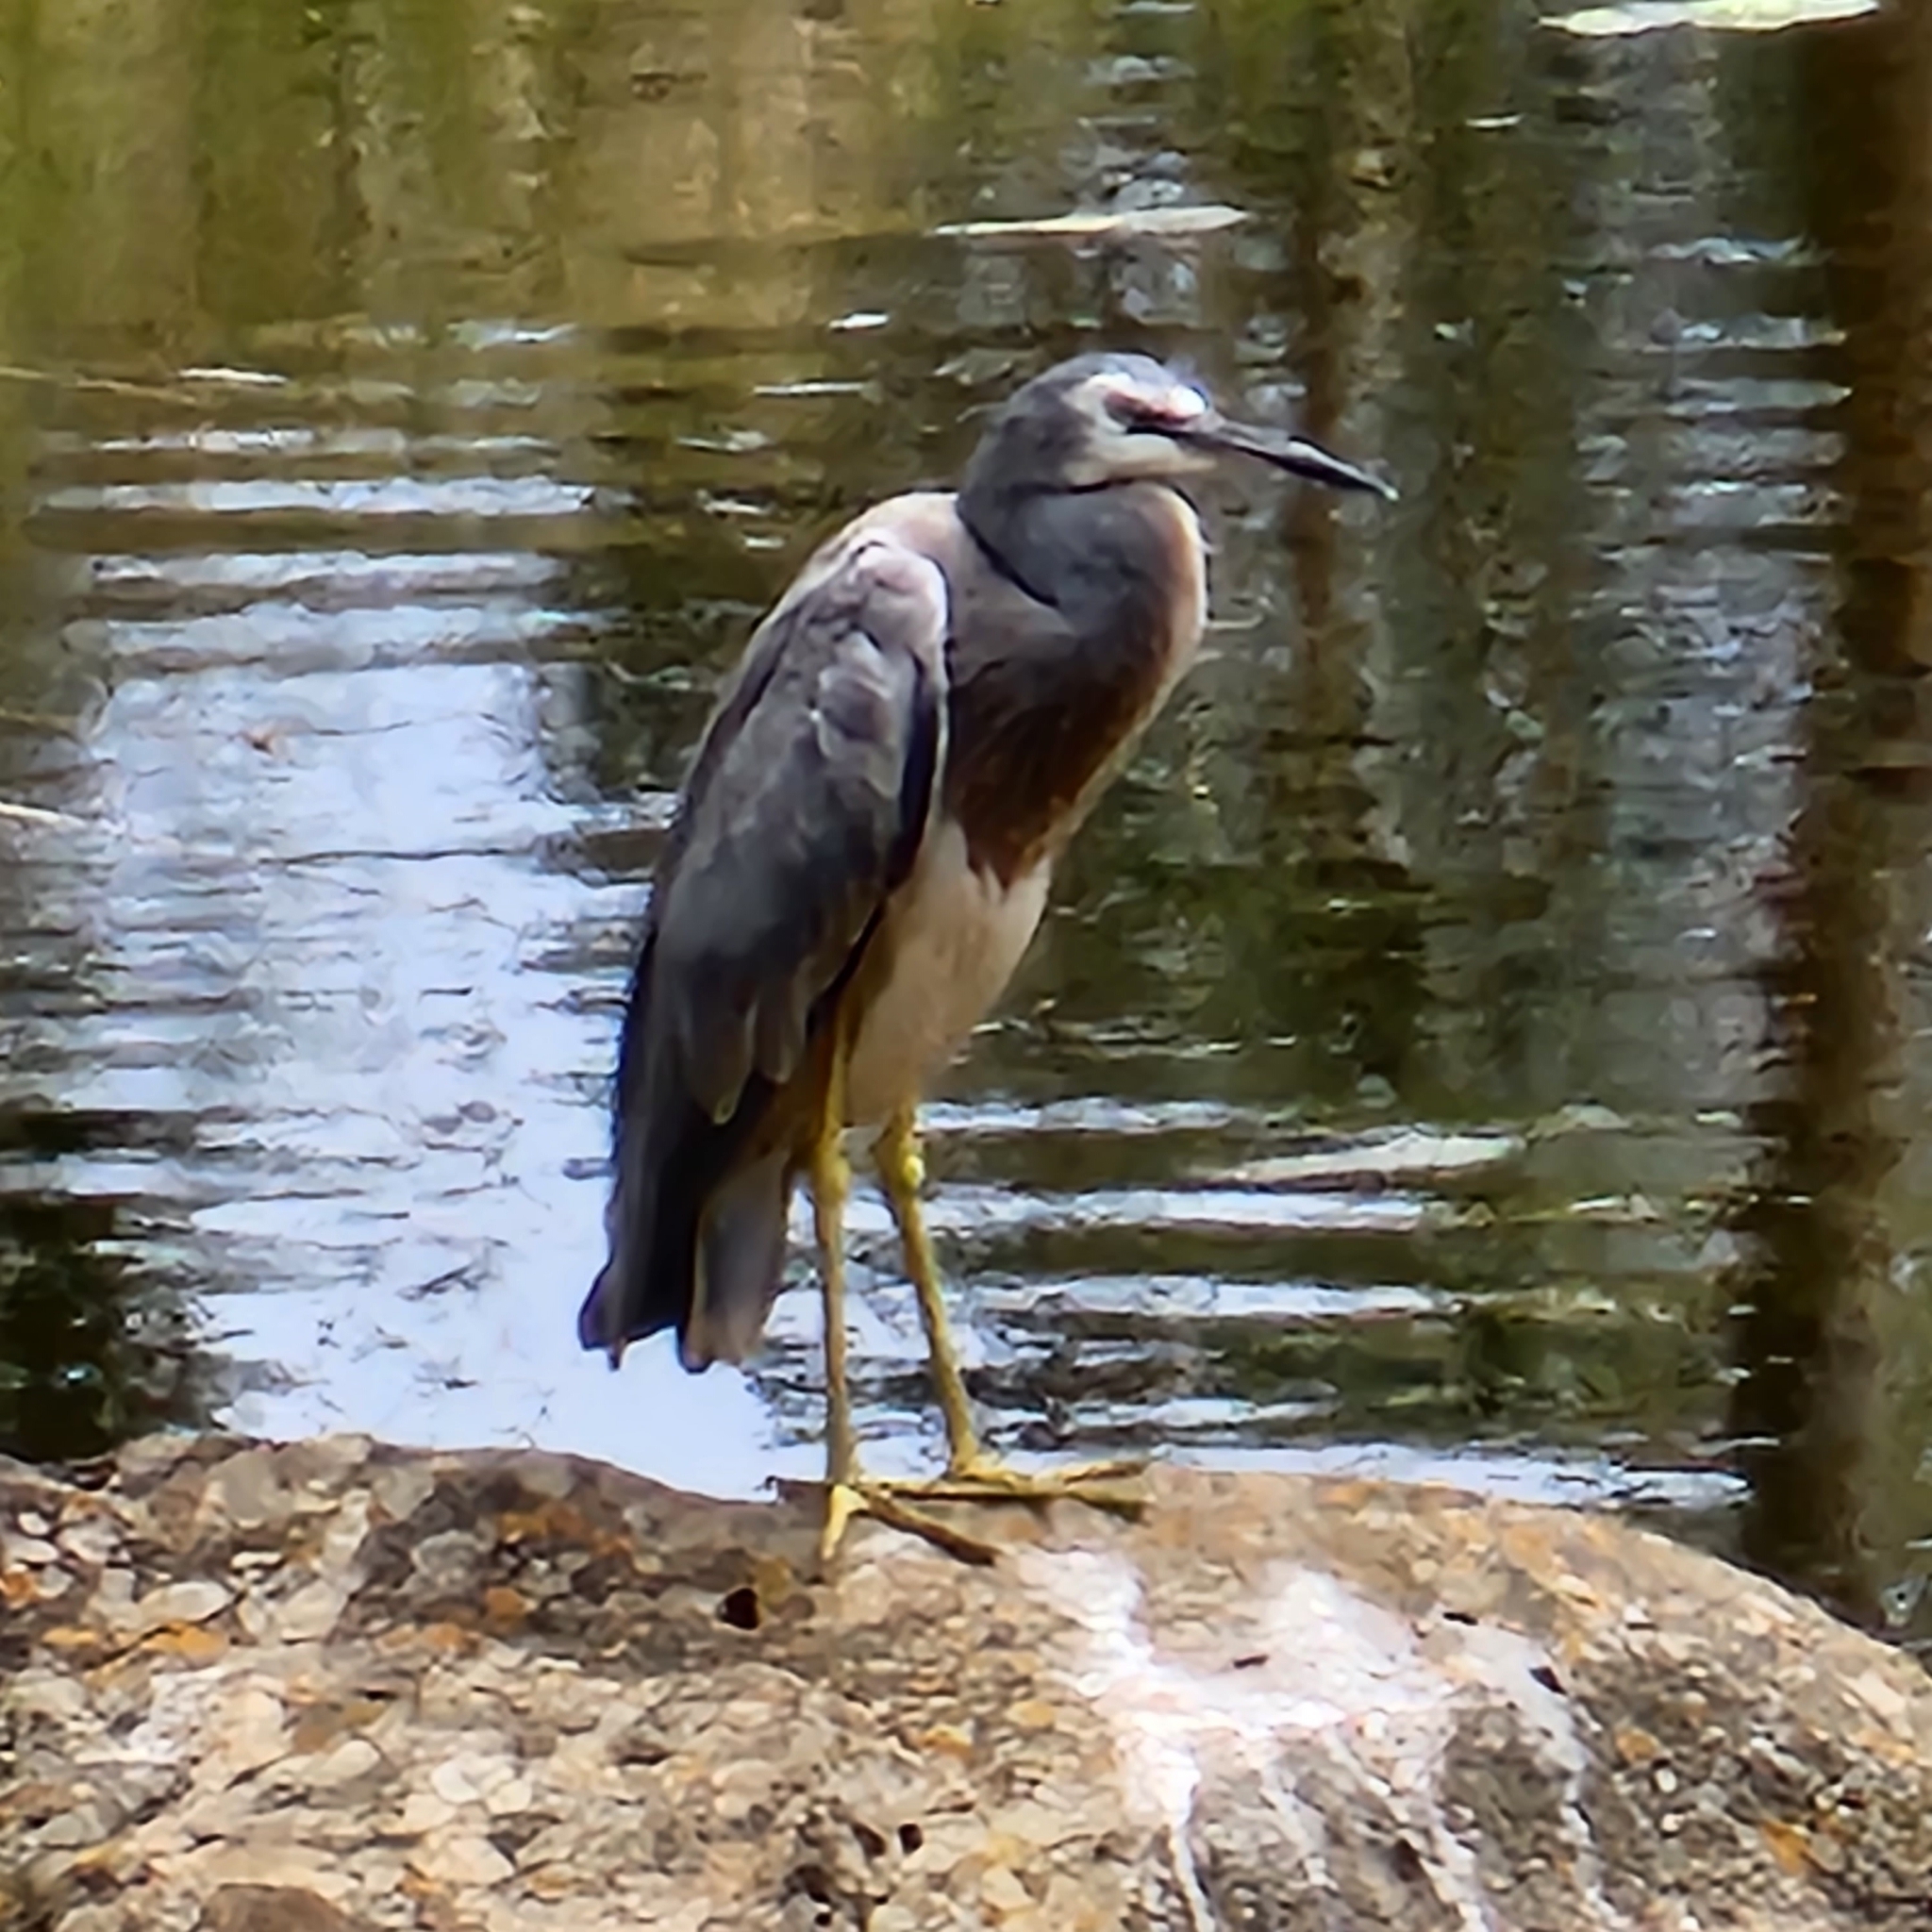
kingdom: Animalia
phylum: Chordata
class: Aves
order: Pelecaniformes
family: Ardeidae
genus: Egretta
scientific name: Egretta novaehollandiae
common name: White-faced heron
